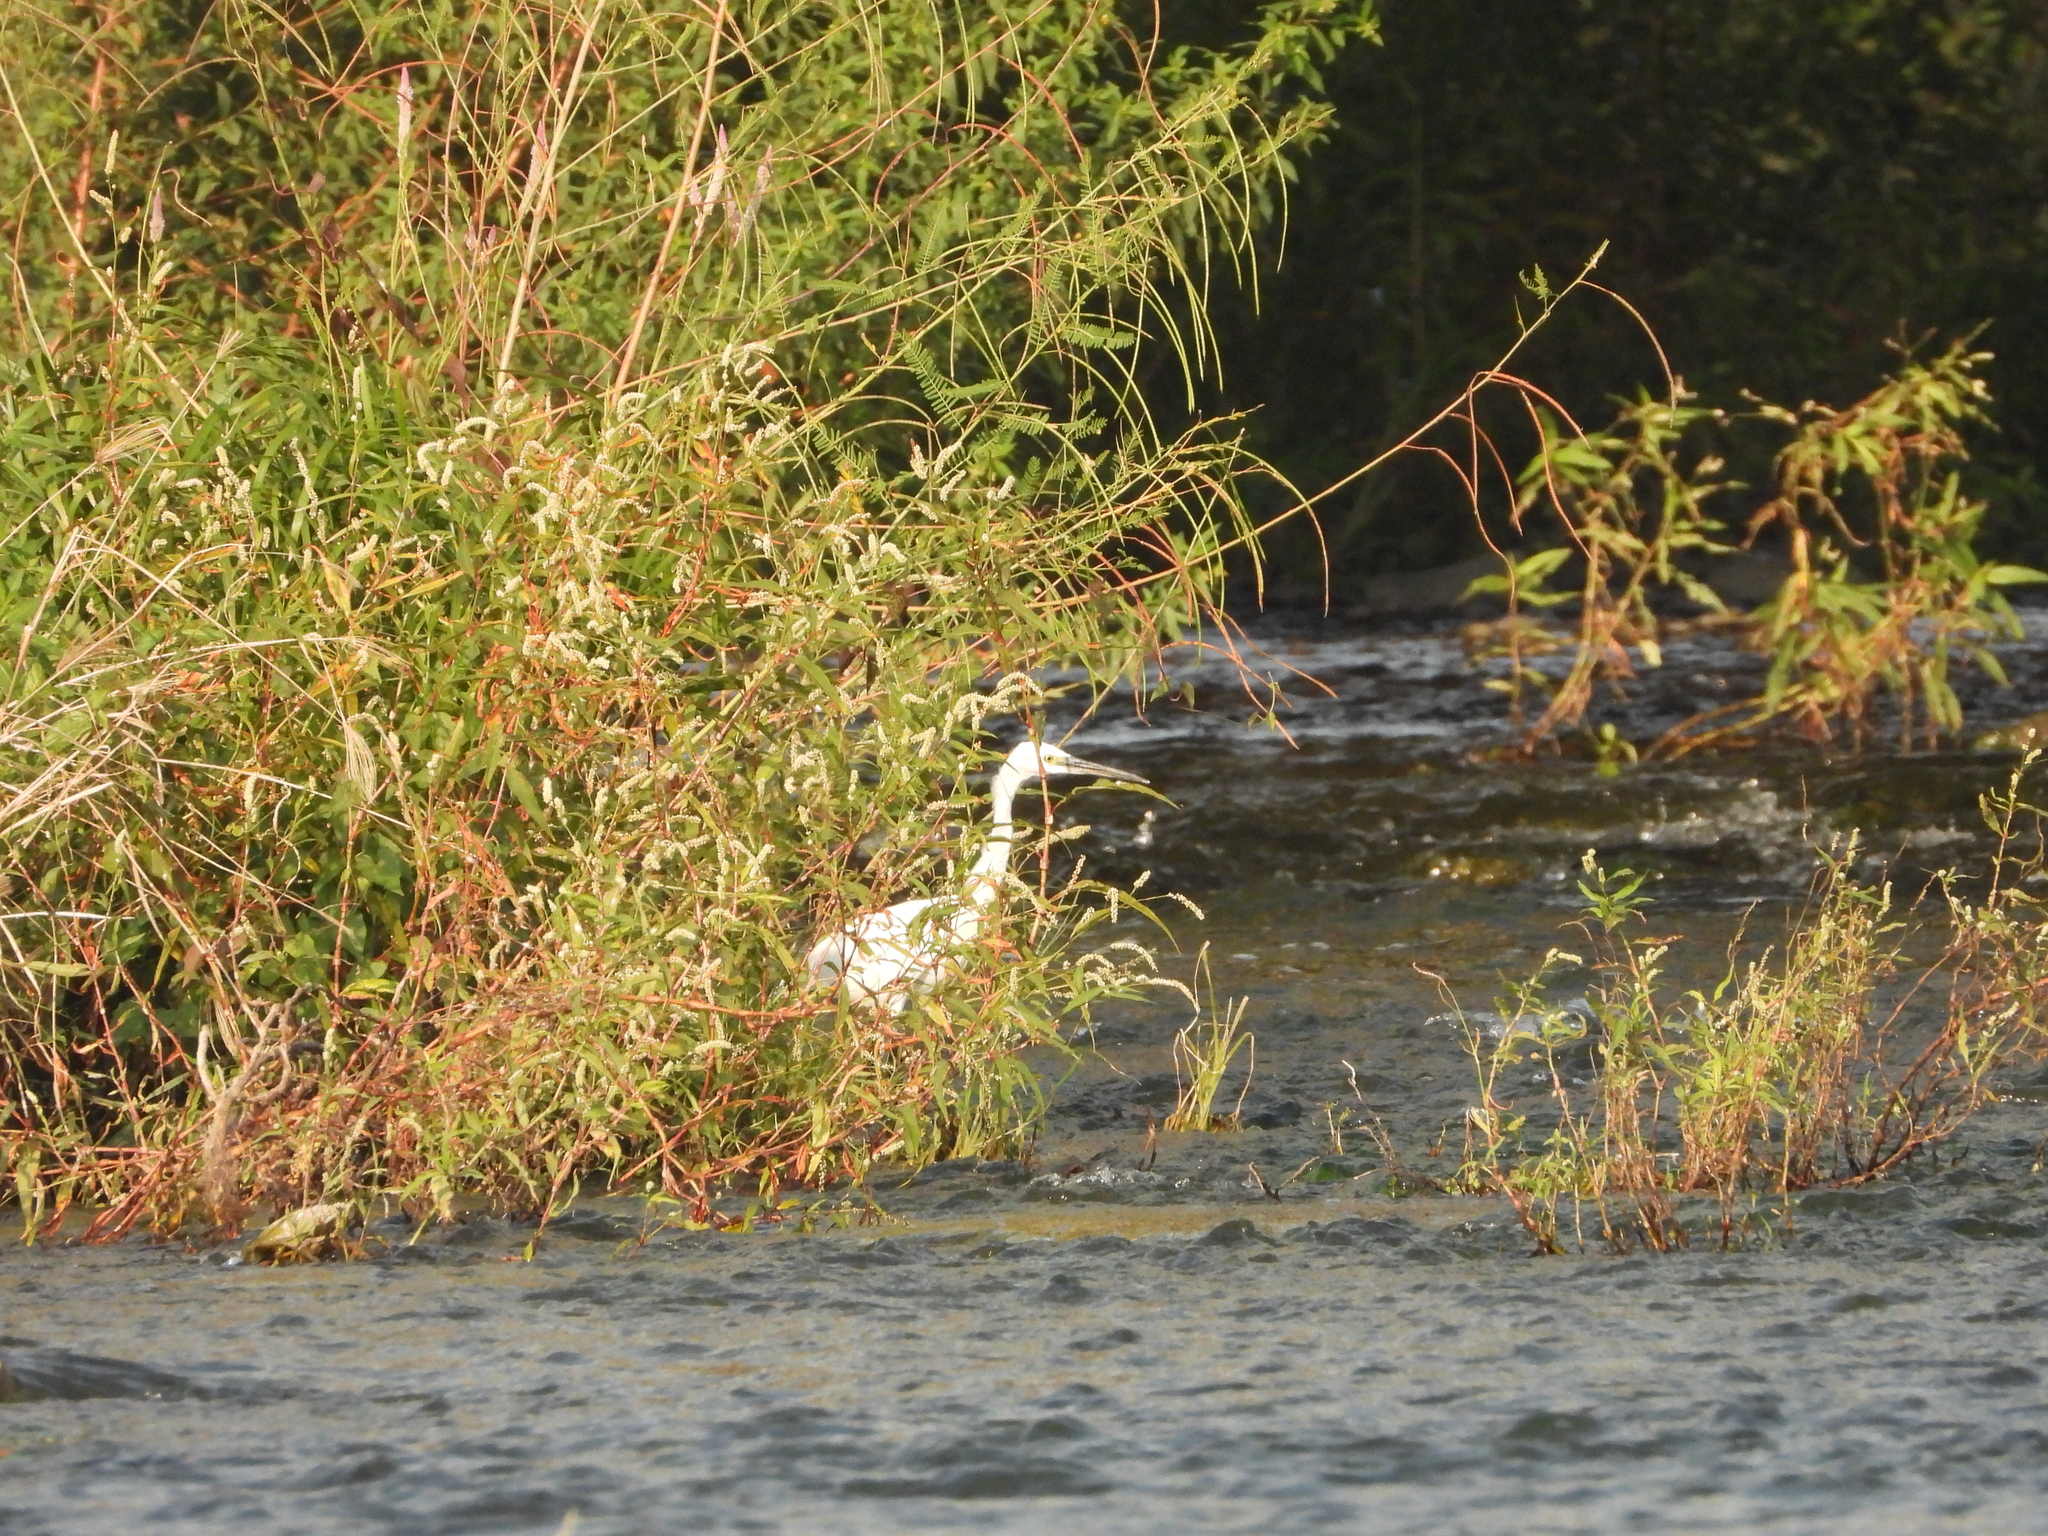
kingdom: Animalia
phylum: Chordata
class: Aves
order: Pelecaniformes
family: Ardeidae
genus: Ardea
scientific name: Ardea alba
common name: Great egret
